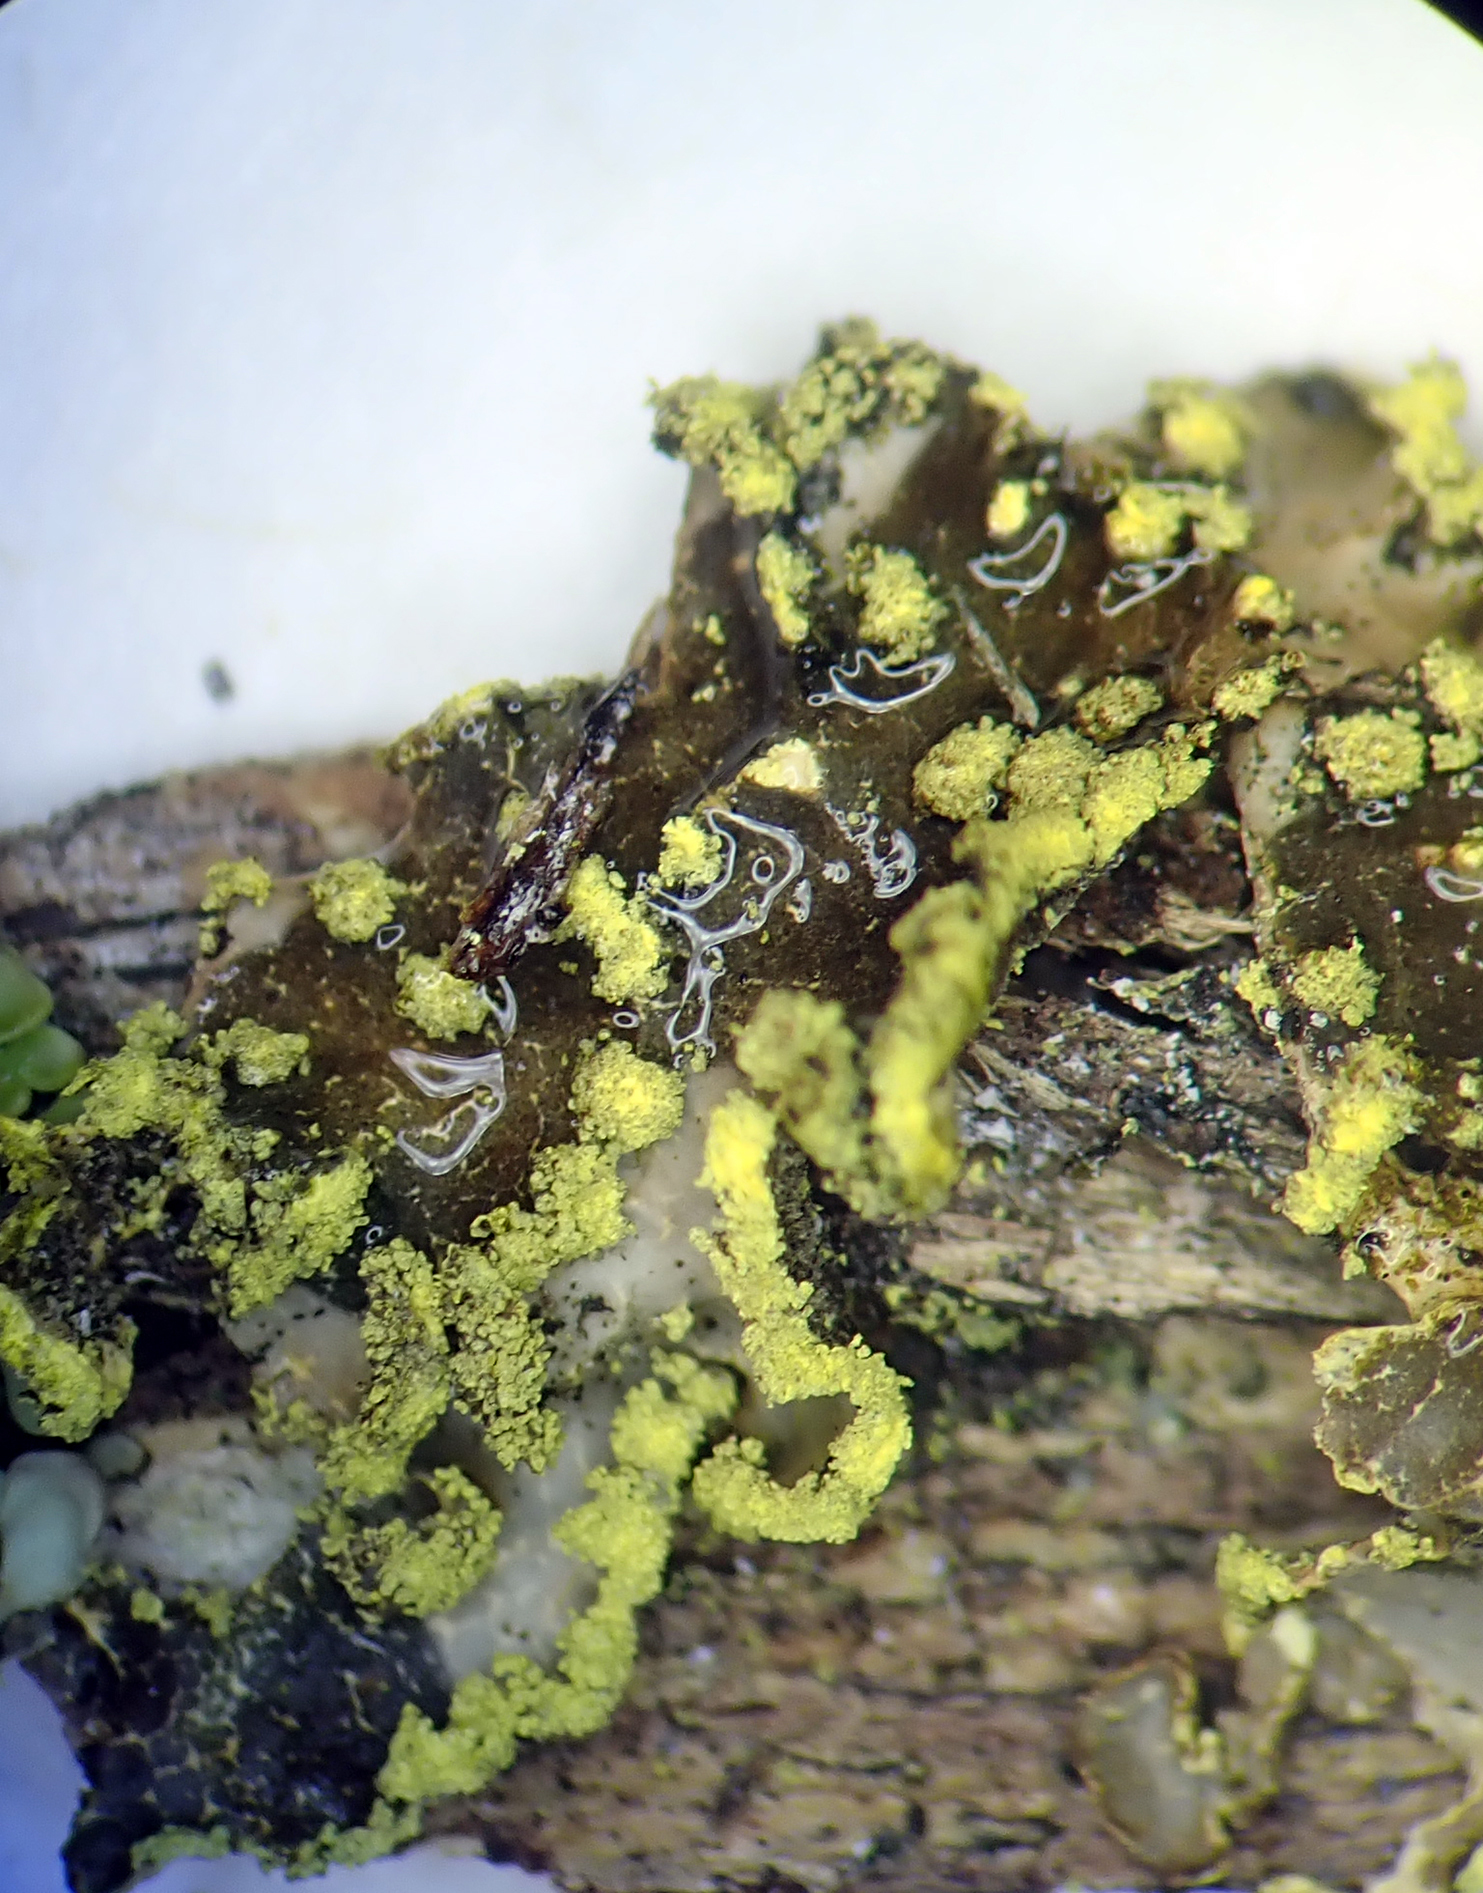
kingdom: Fungi
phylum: Ascomycota
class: Lecanoromycetes
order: Peltigerales
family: Lobariaceae
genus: Pseudocyphellaria
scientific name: Pseudocyphellaria crocata
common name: Golden specklebelly
